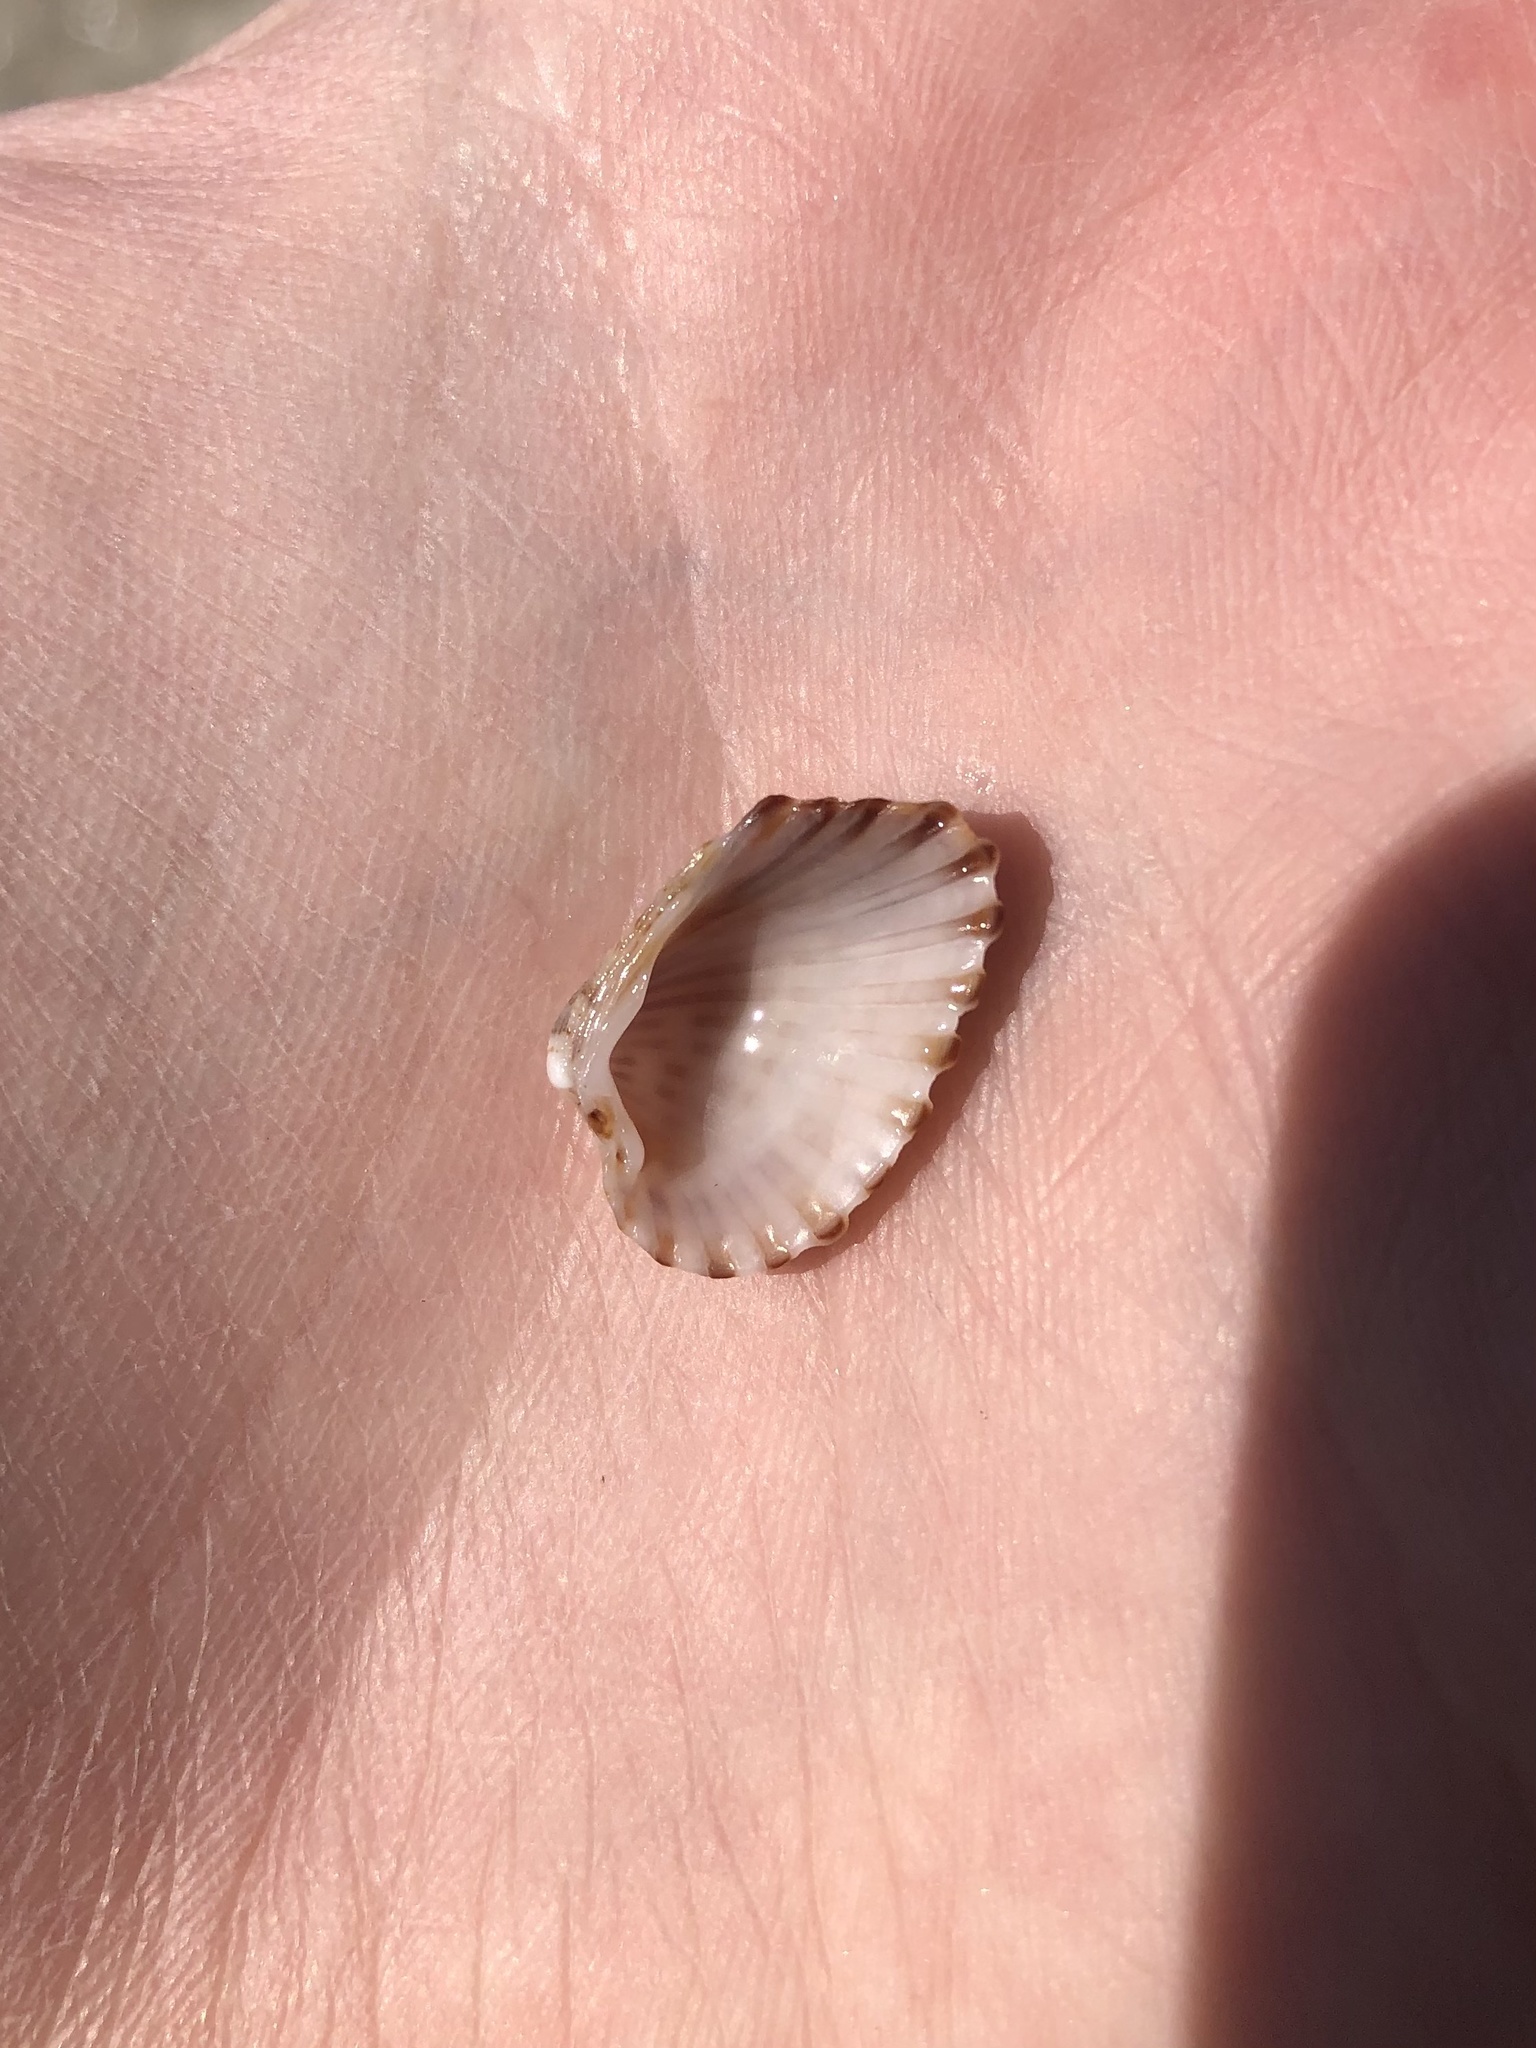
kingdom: Animalia
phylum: Mollusca
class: Bivalvia
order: Carditida
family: Carditidae
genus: Cardites
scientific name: Cardites floridanus
